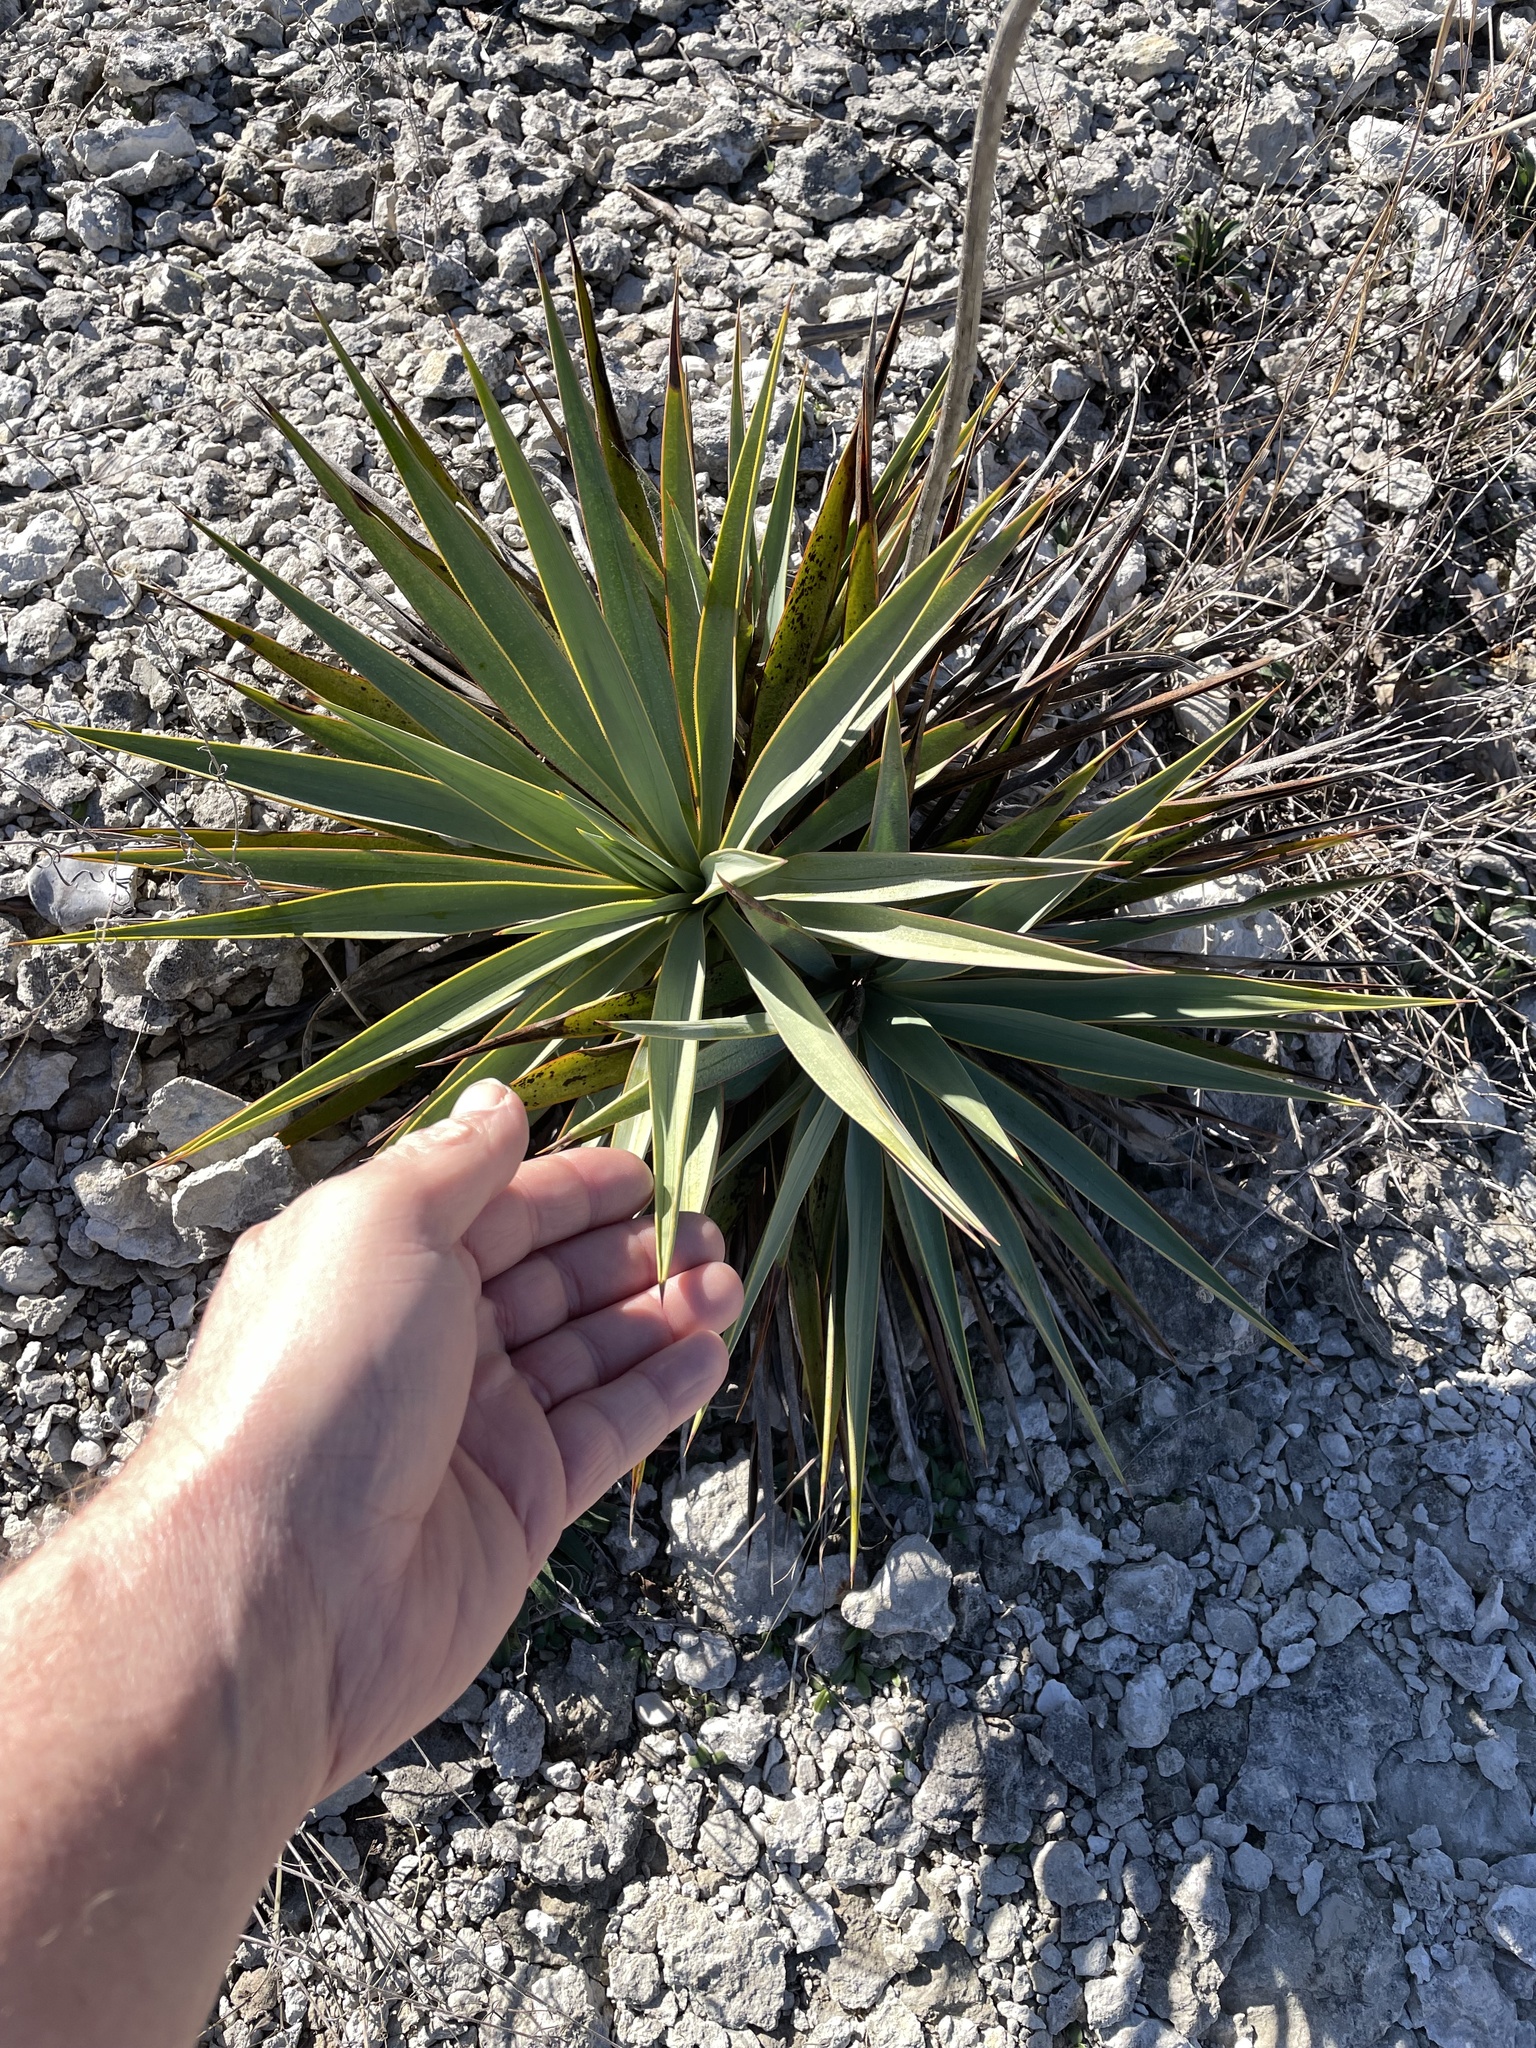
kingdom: Plantae
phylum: Tracheophyta
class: Liliopsida
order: Asparagales
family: Asparagaceae
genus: Yucca
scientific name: Yucca pallida
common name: Pale leaf yucca
